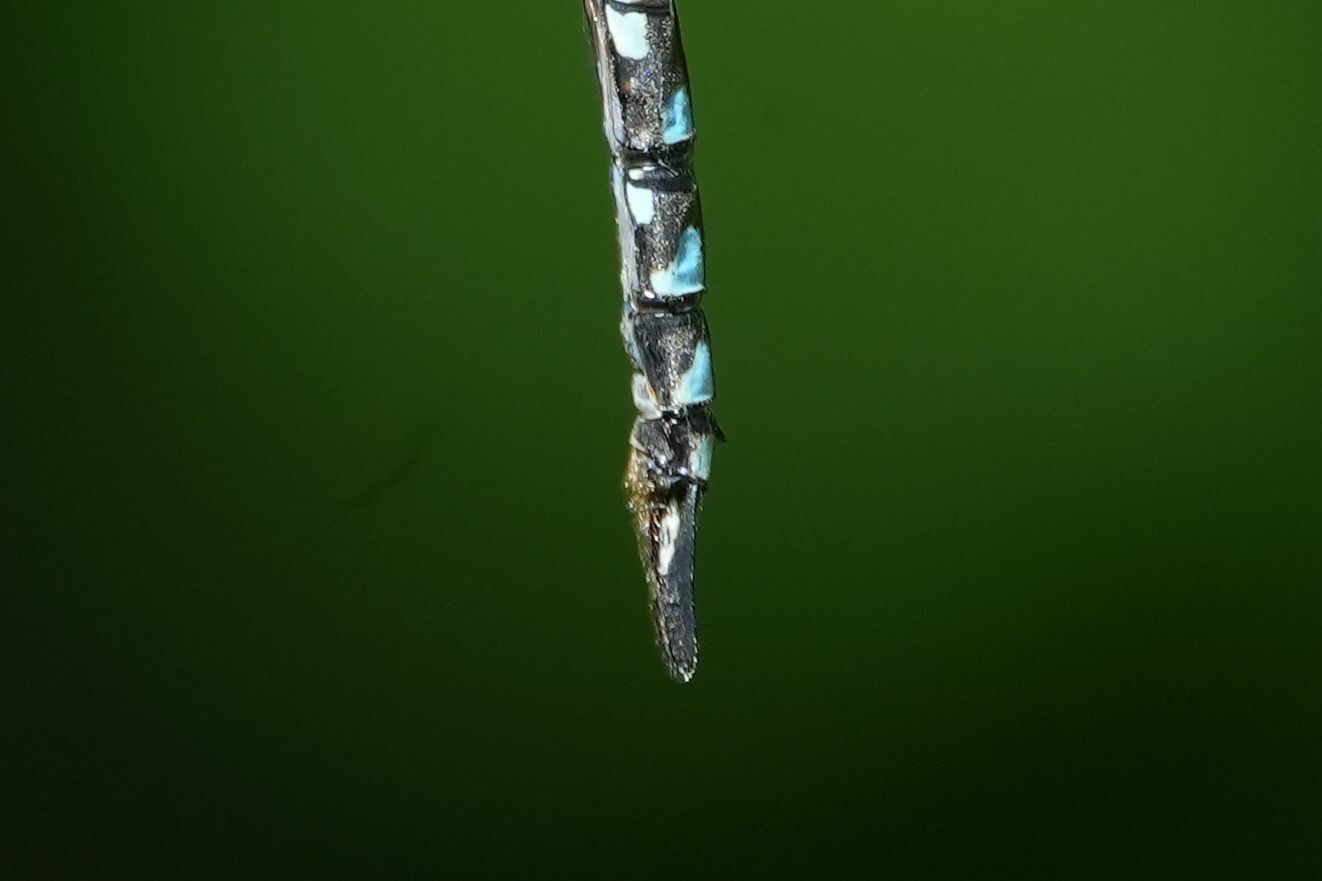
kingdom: Animalia
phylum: Arthropoda
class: Insecta
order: Odonata
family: Aeshnidae
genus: Aeshna
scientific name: Aeshna canadensis
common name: Canada darner
